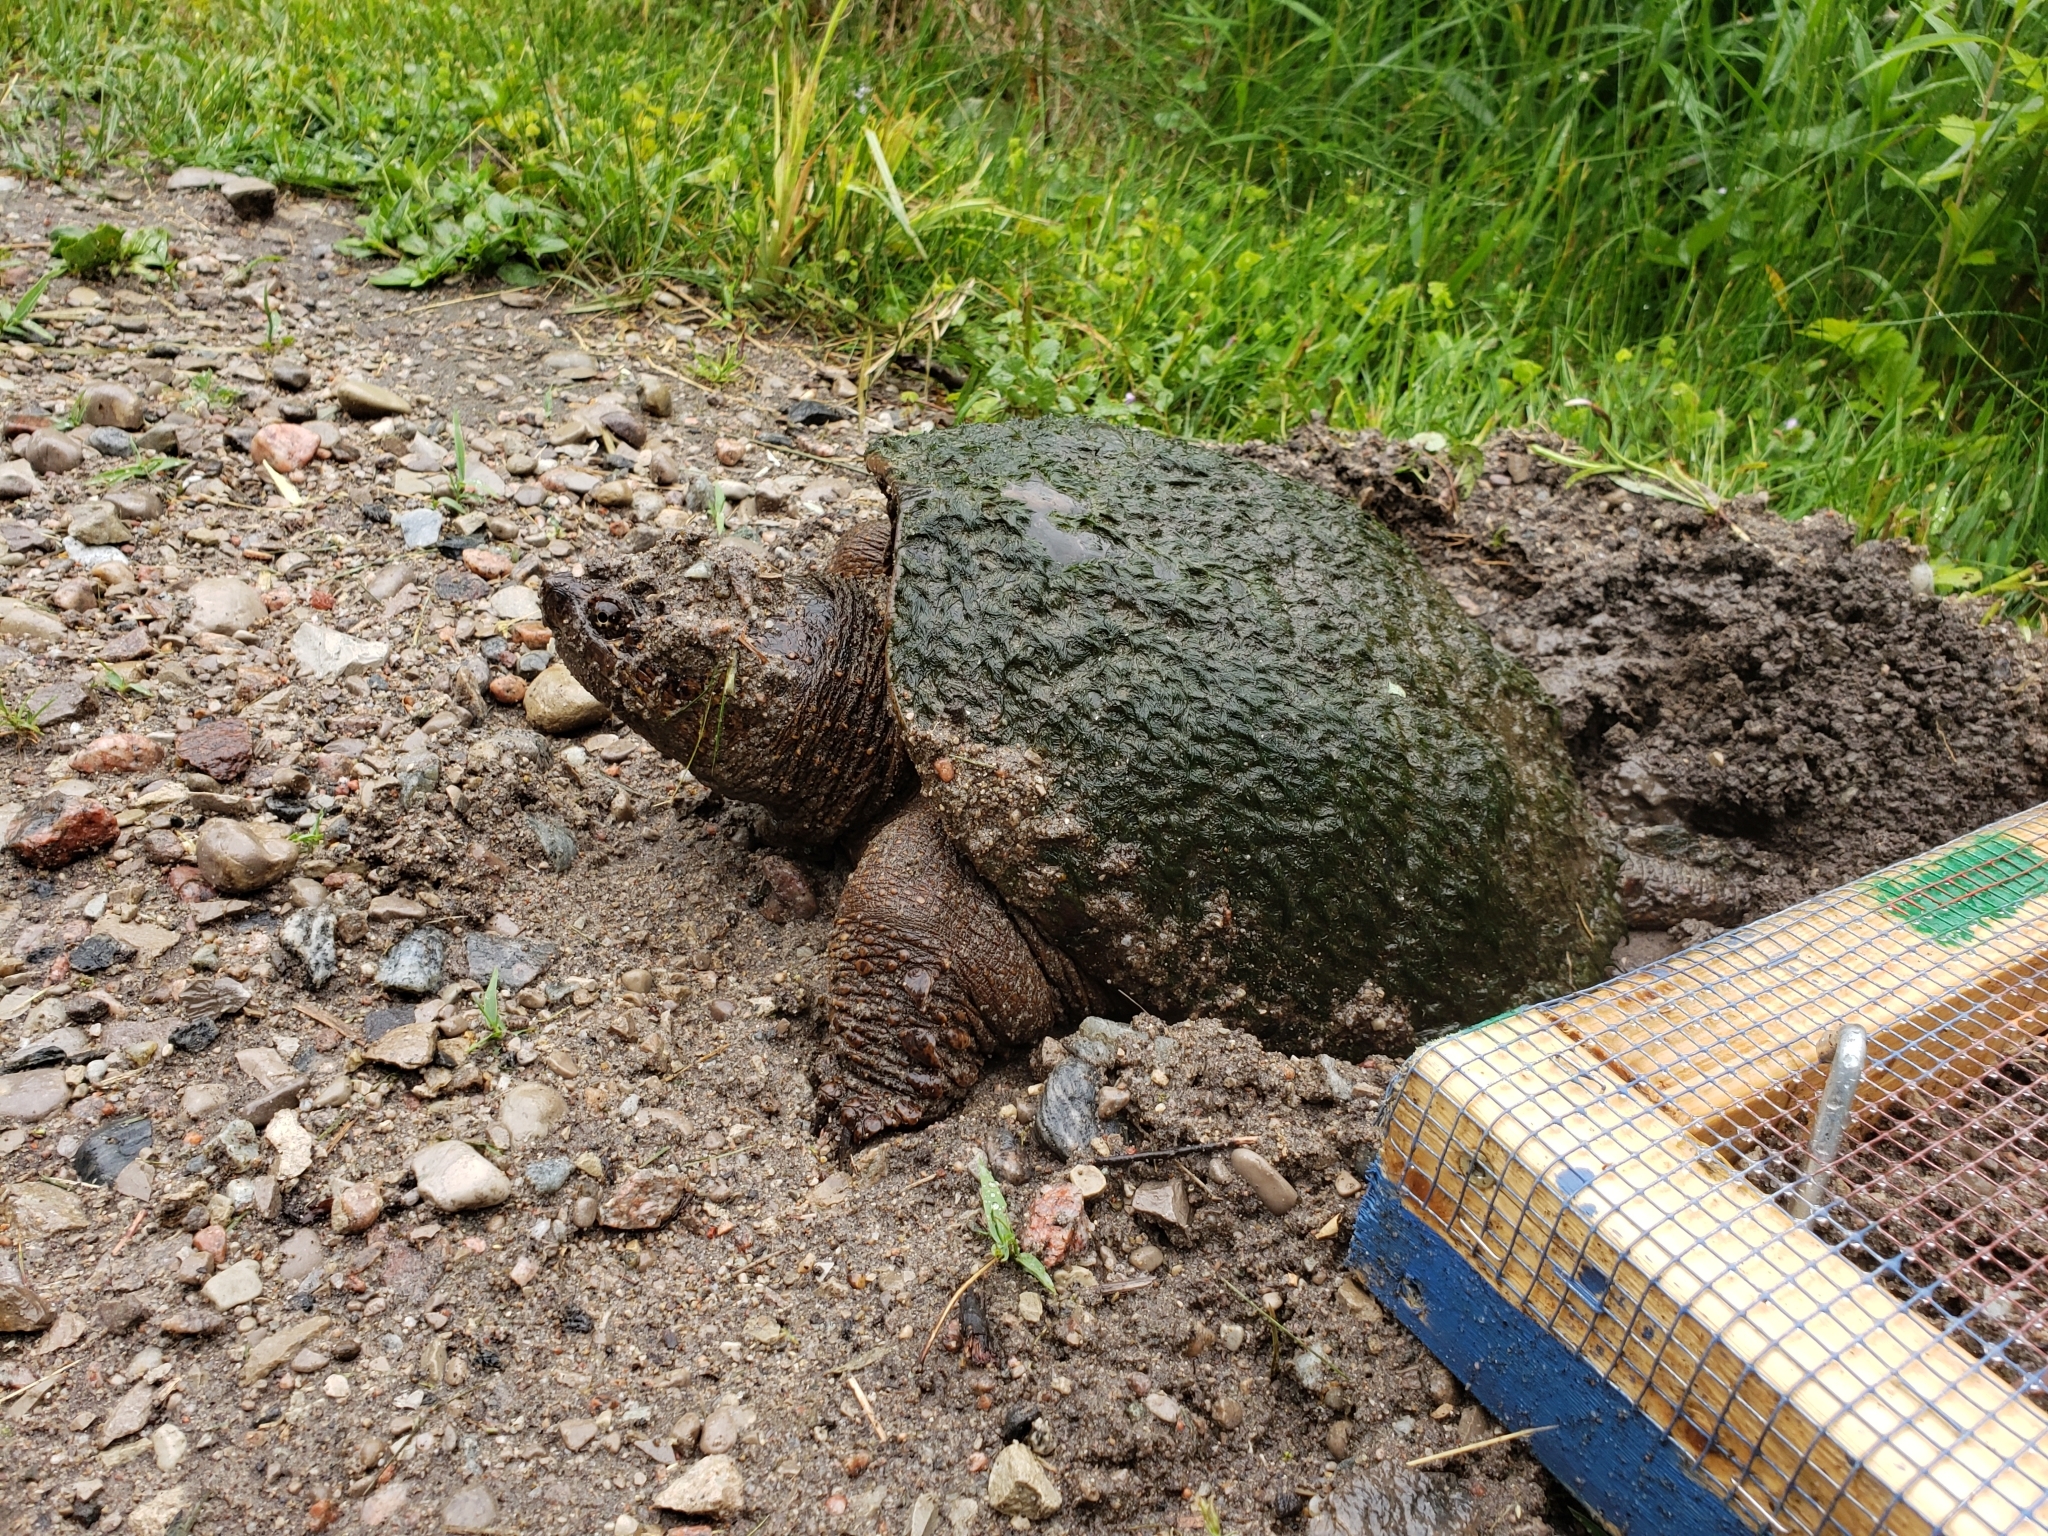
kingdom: Animalia
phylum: Chordata
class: Testudines
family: Chelydridae
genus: Chelydra
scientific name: Chelydra serpentina
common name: Common snapping turtle
